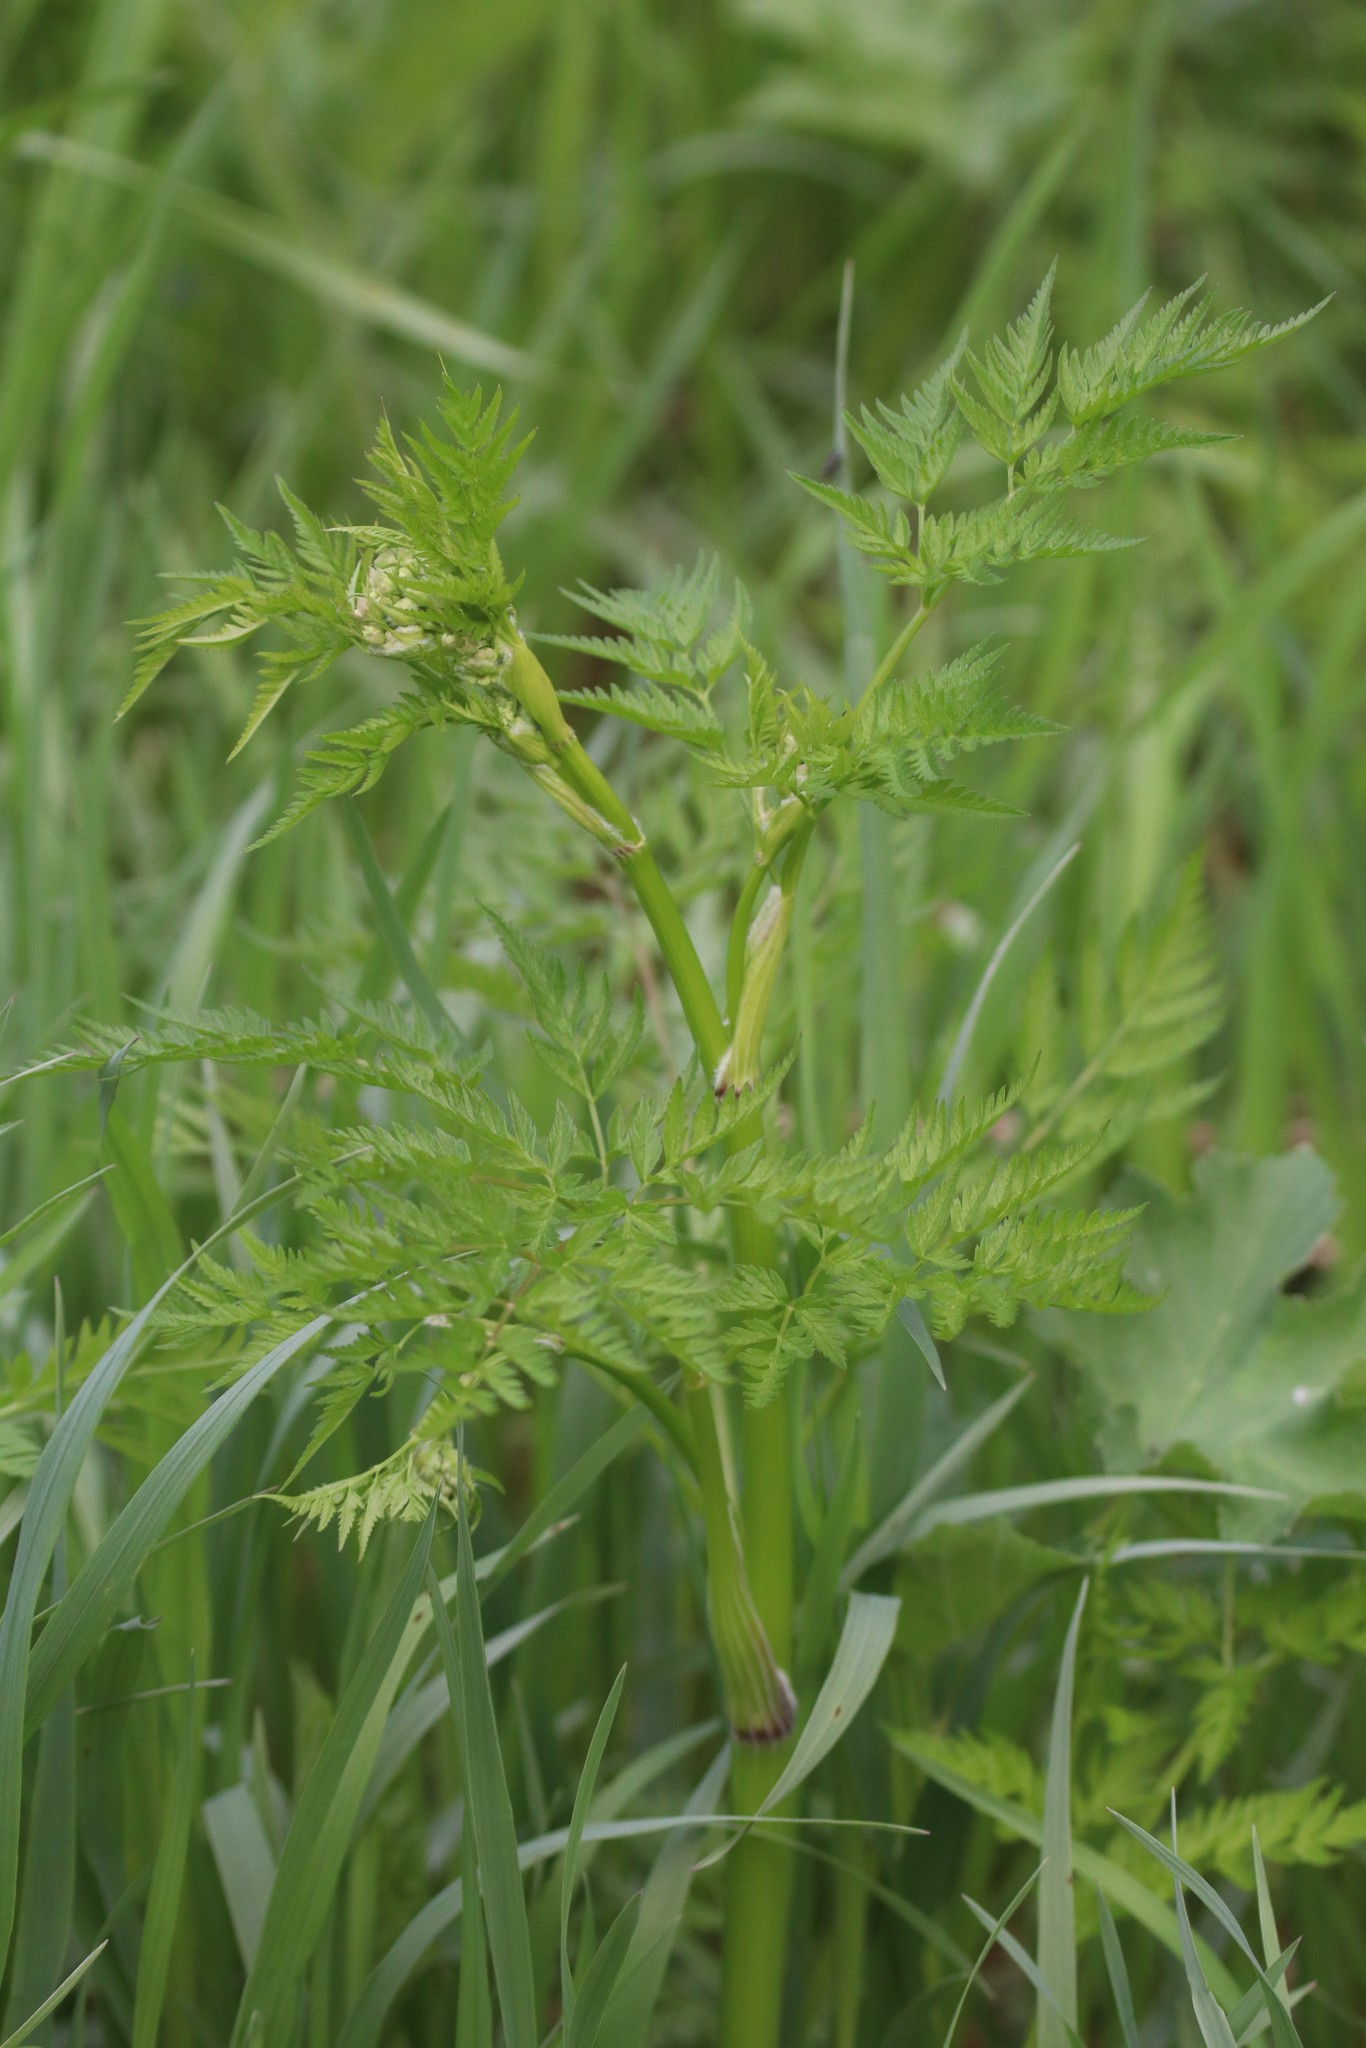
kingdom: Plantae
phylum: Tracheophyta
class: Magnoliopsida
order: Apiales
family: Apiaceae
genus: Anthriscus
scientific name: Anthriscus sylvestris
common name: Cow parsley
